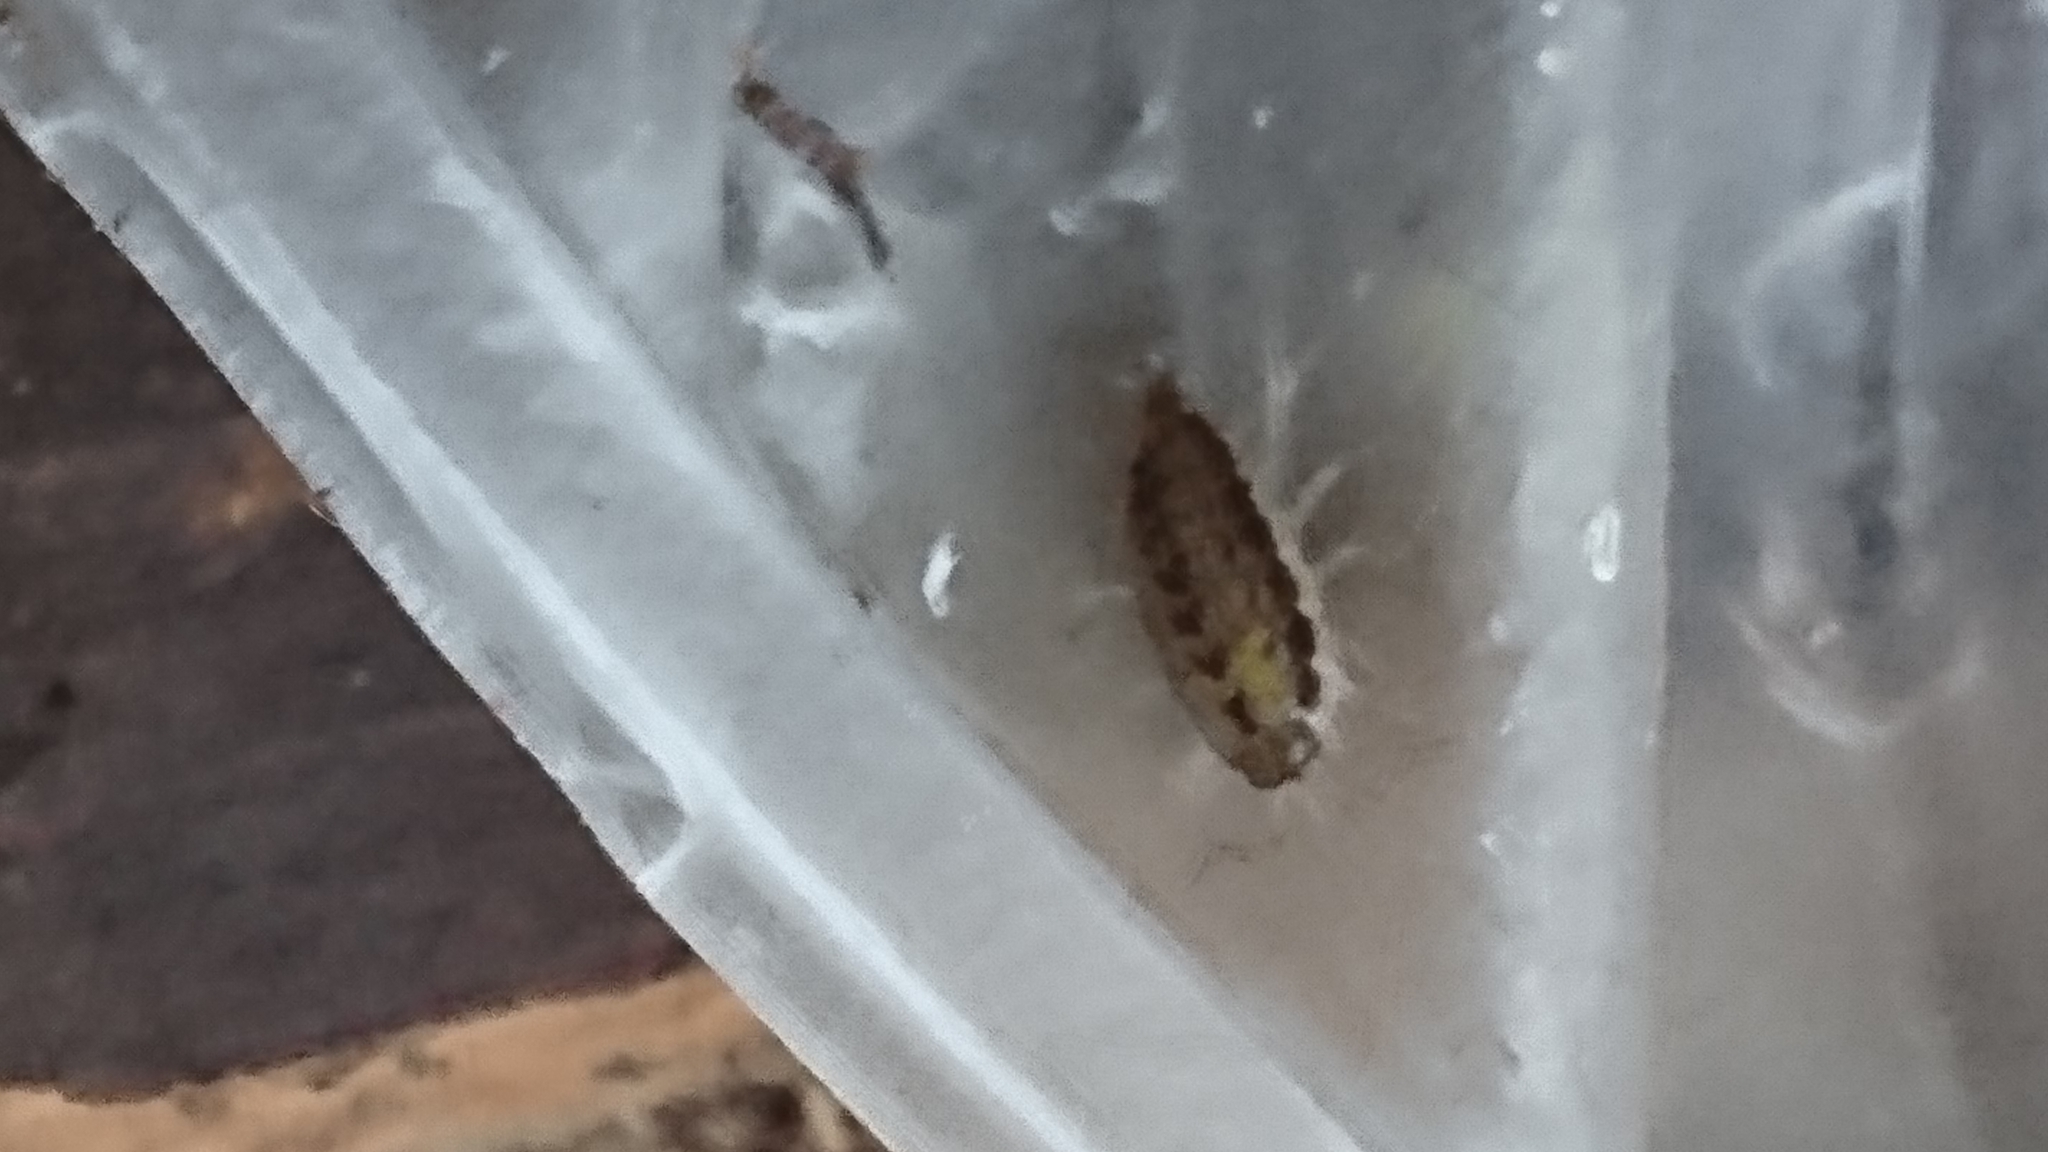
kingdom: Animalia
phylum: Arthropoda
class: Malacostraca
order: Isopoda
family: Philosciidae
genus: Philoscia
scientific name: Philoscia
